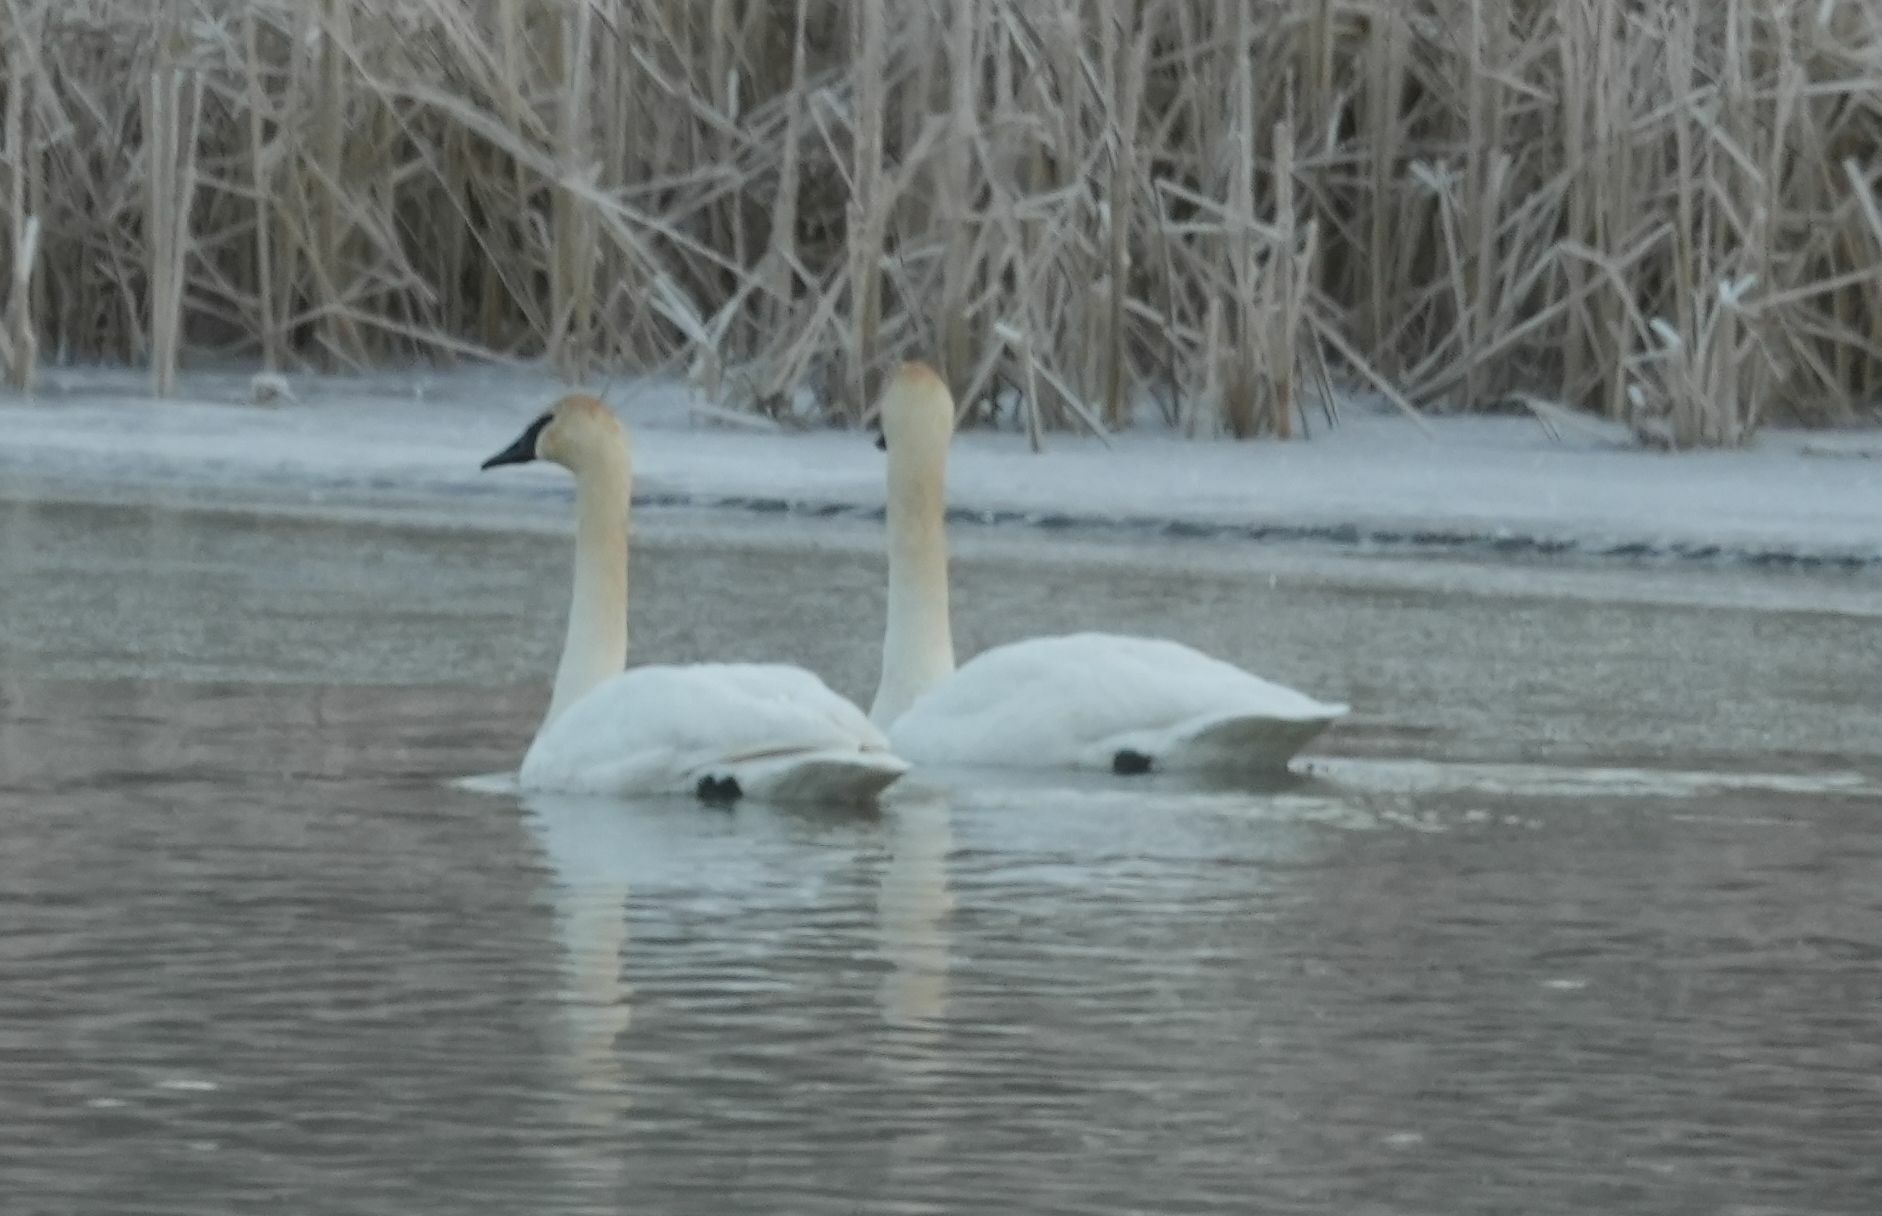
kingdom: Animalia
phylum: Chordata
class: Aves
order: Anseriformes
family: Anatidae
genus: Cygnus
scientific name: Cygnus buccinator
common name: Trumpeter swan
